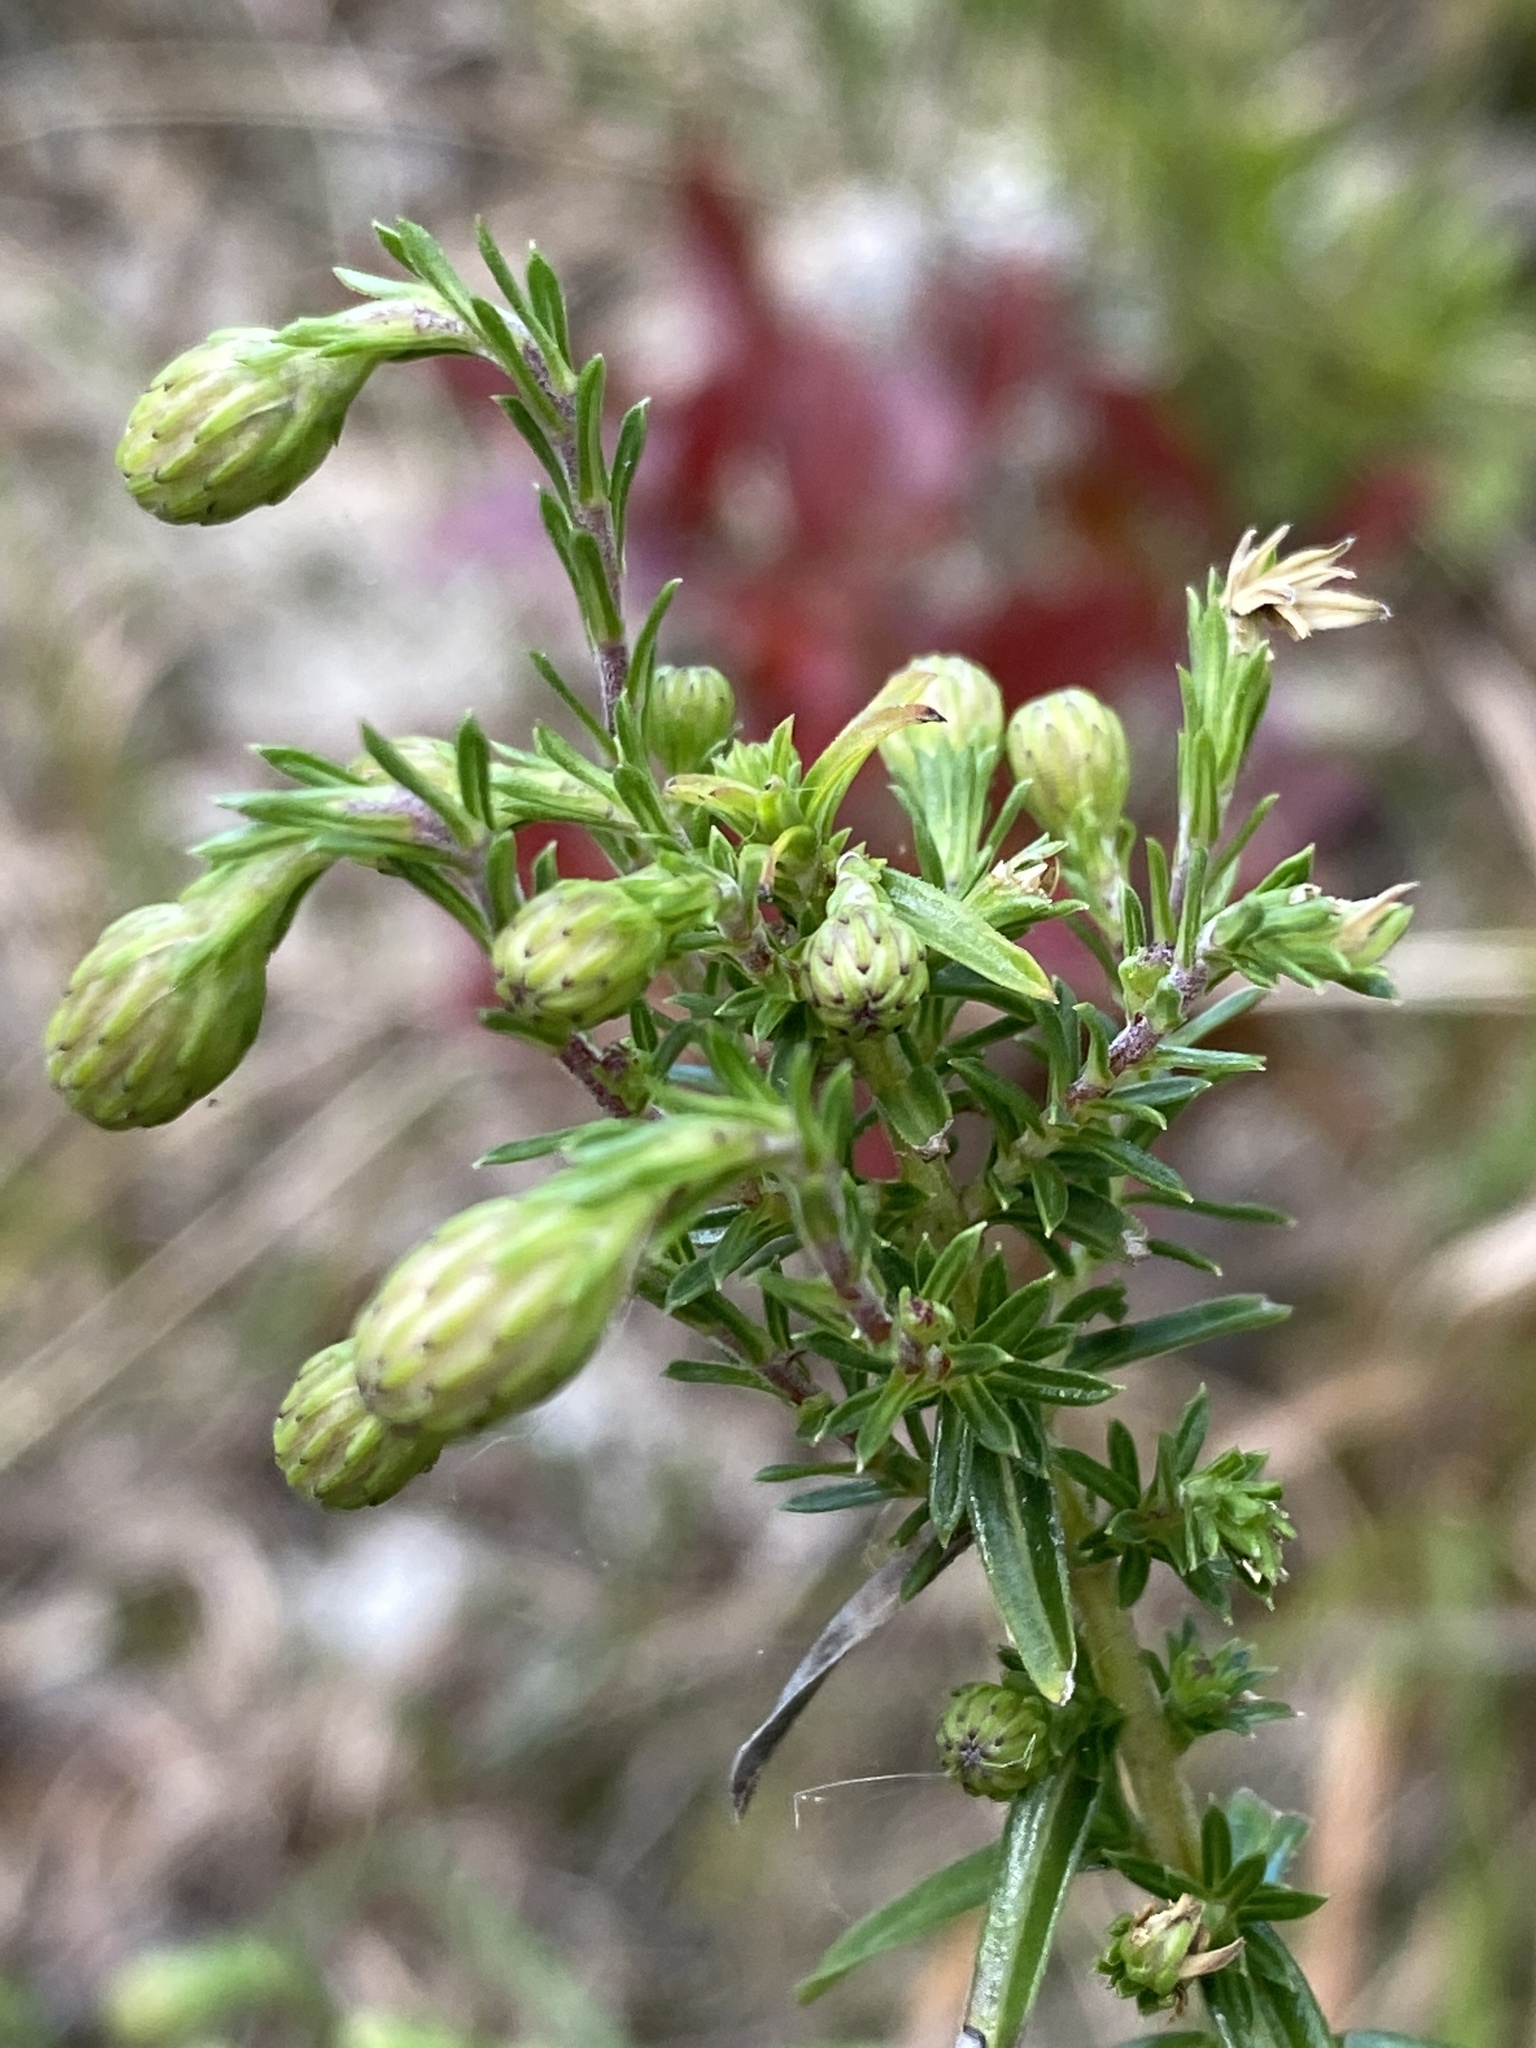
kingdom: Plantae
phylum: Tracheophyta
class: Magnoliopsida
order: Asterales
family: Asteraceae
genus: Ionactis
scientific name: Ionactis linariifolia
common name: Flax-leaf aster
